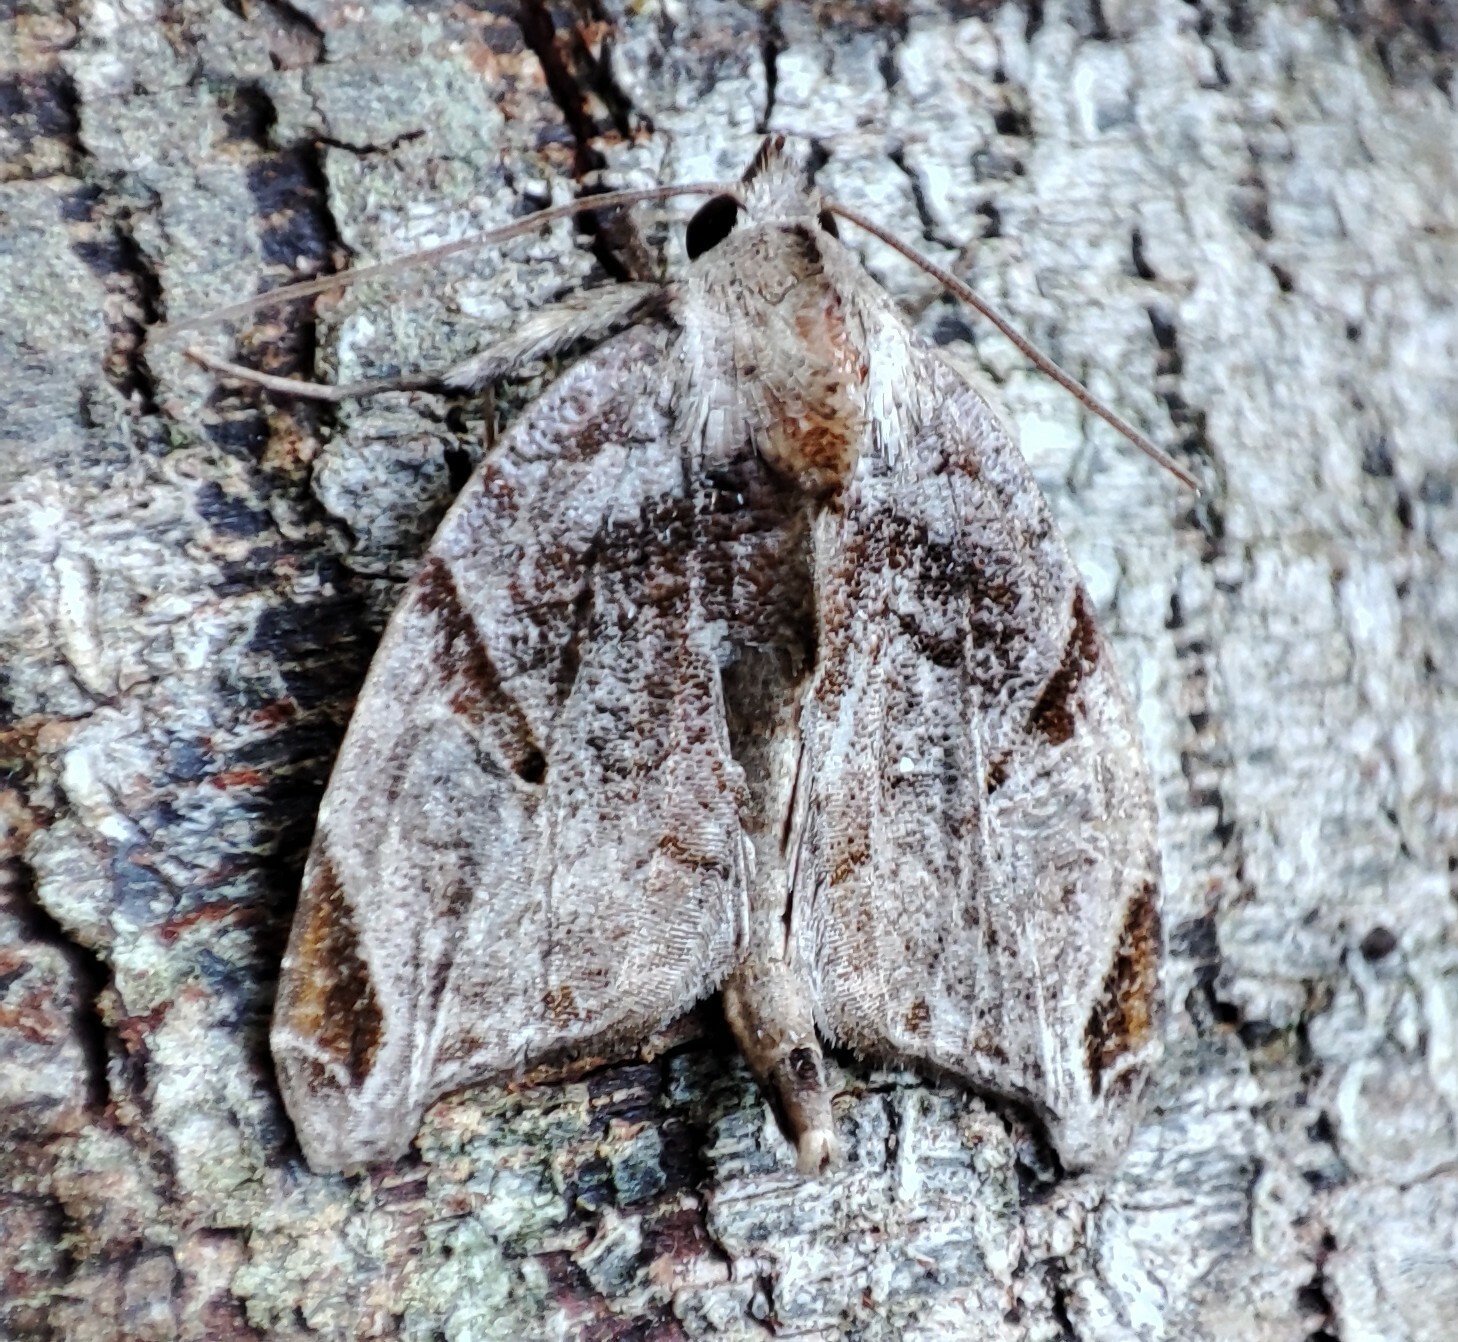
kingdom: Animalia
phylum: Arthropoda
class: Insecta
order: Lepidoptera
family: Noctuidae
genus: Androlymnia
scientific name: Androlymnia torsivena
